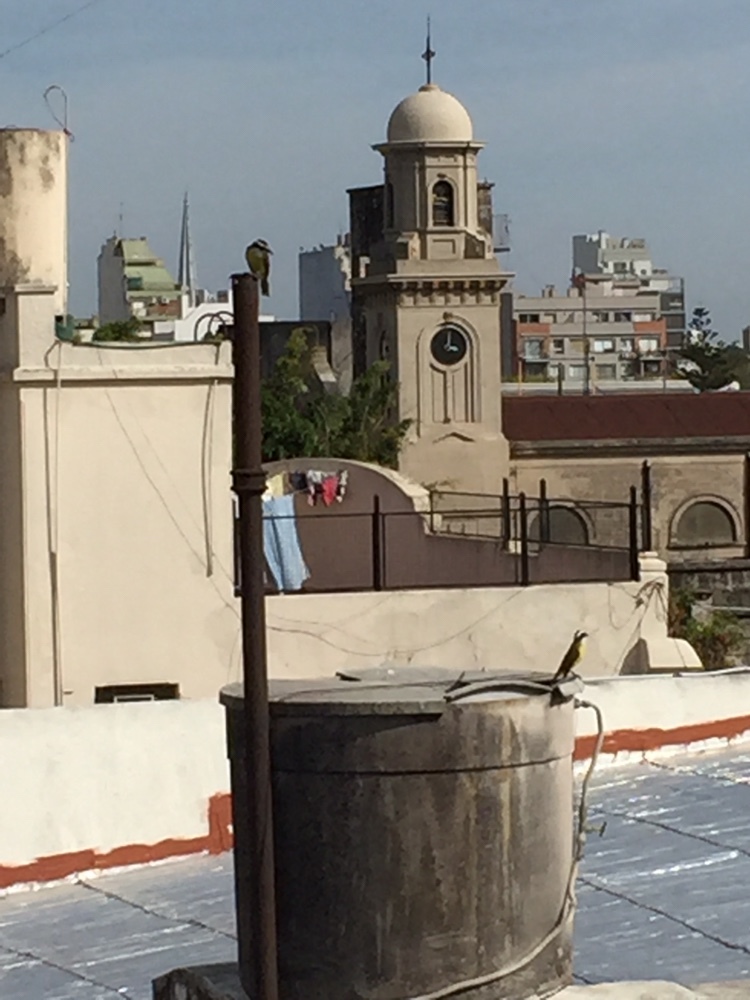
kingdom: Animalia
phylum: Chordata
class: Aves
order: Passeriformes
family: Tyrannidae
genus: Pitangus
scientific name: Pitangus sulphuratus
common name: Great kiskadee
